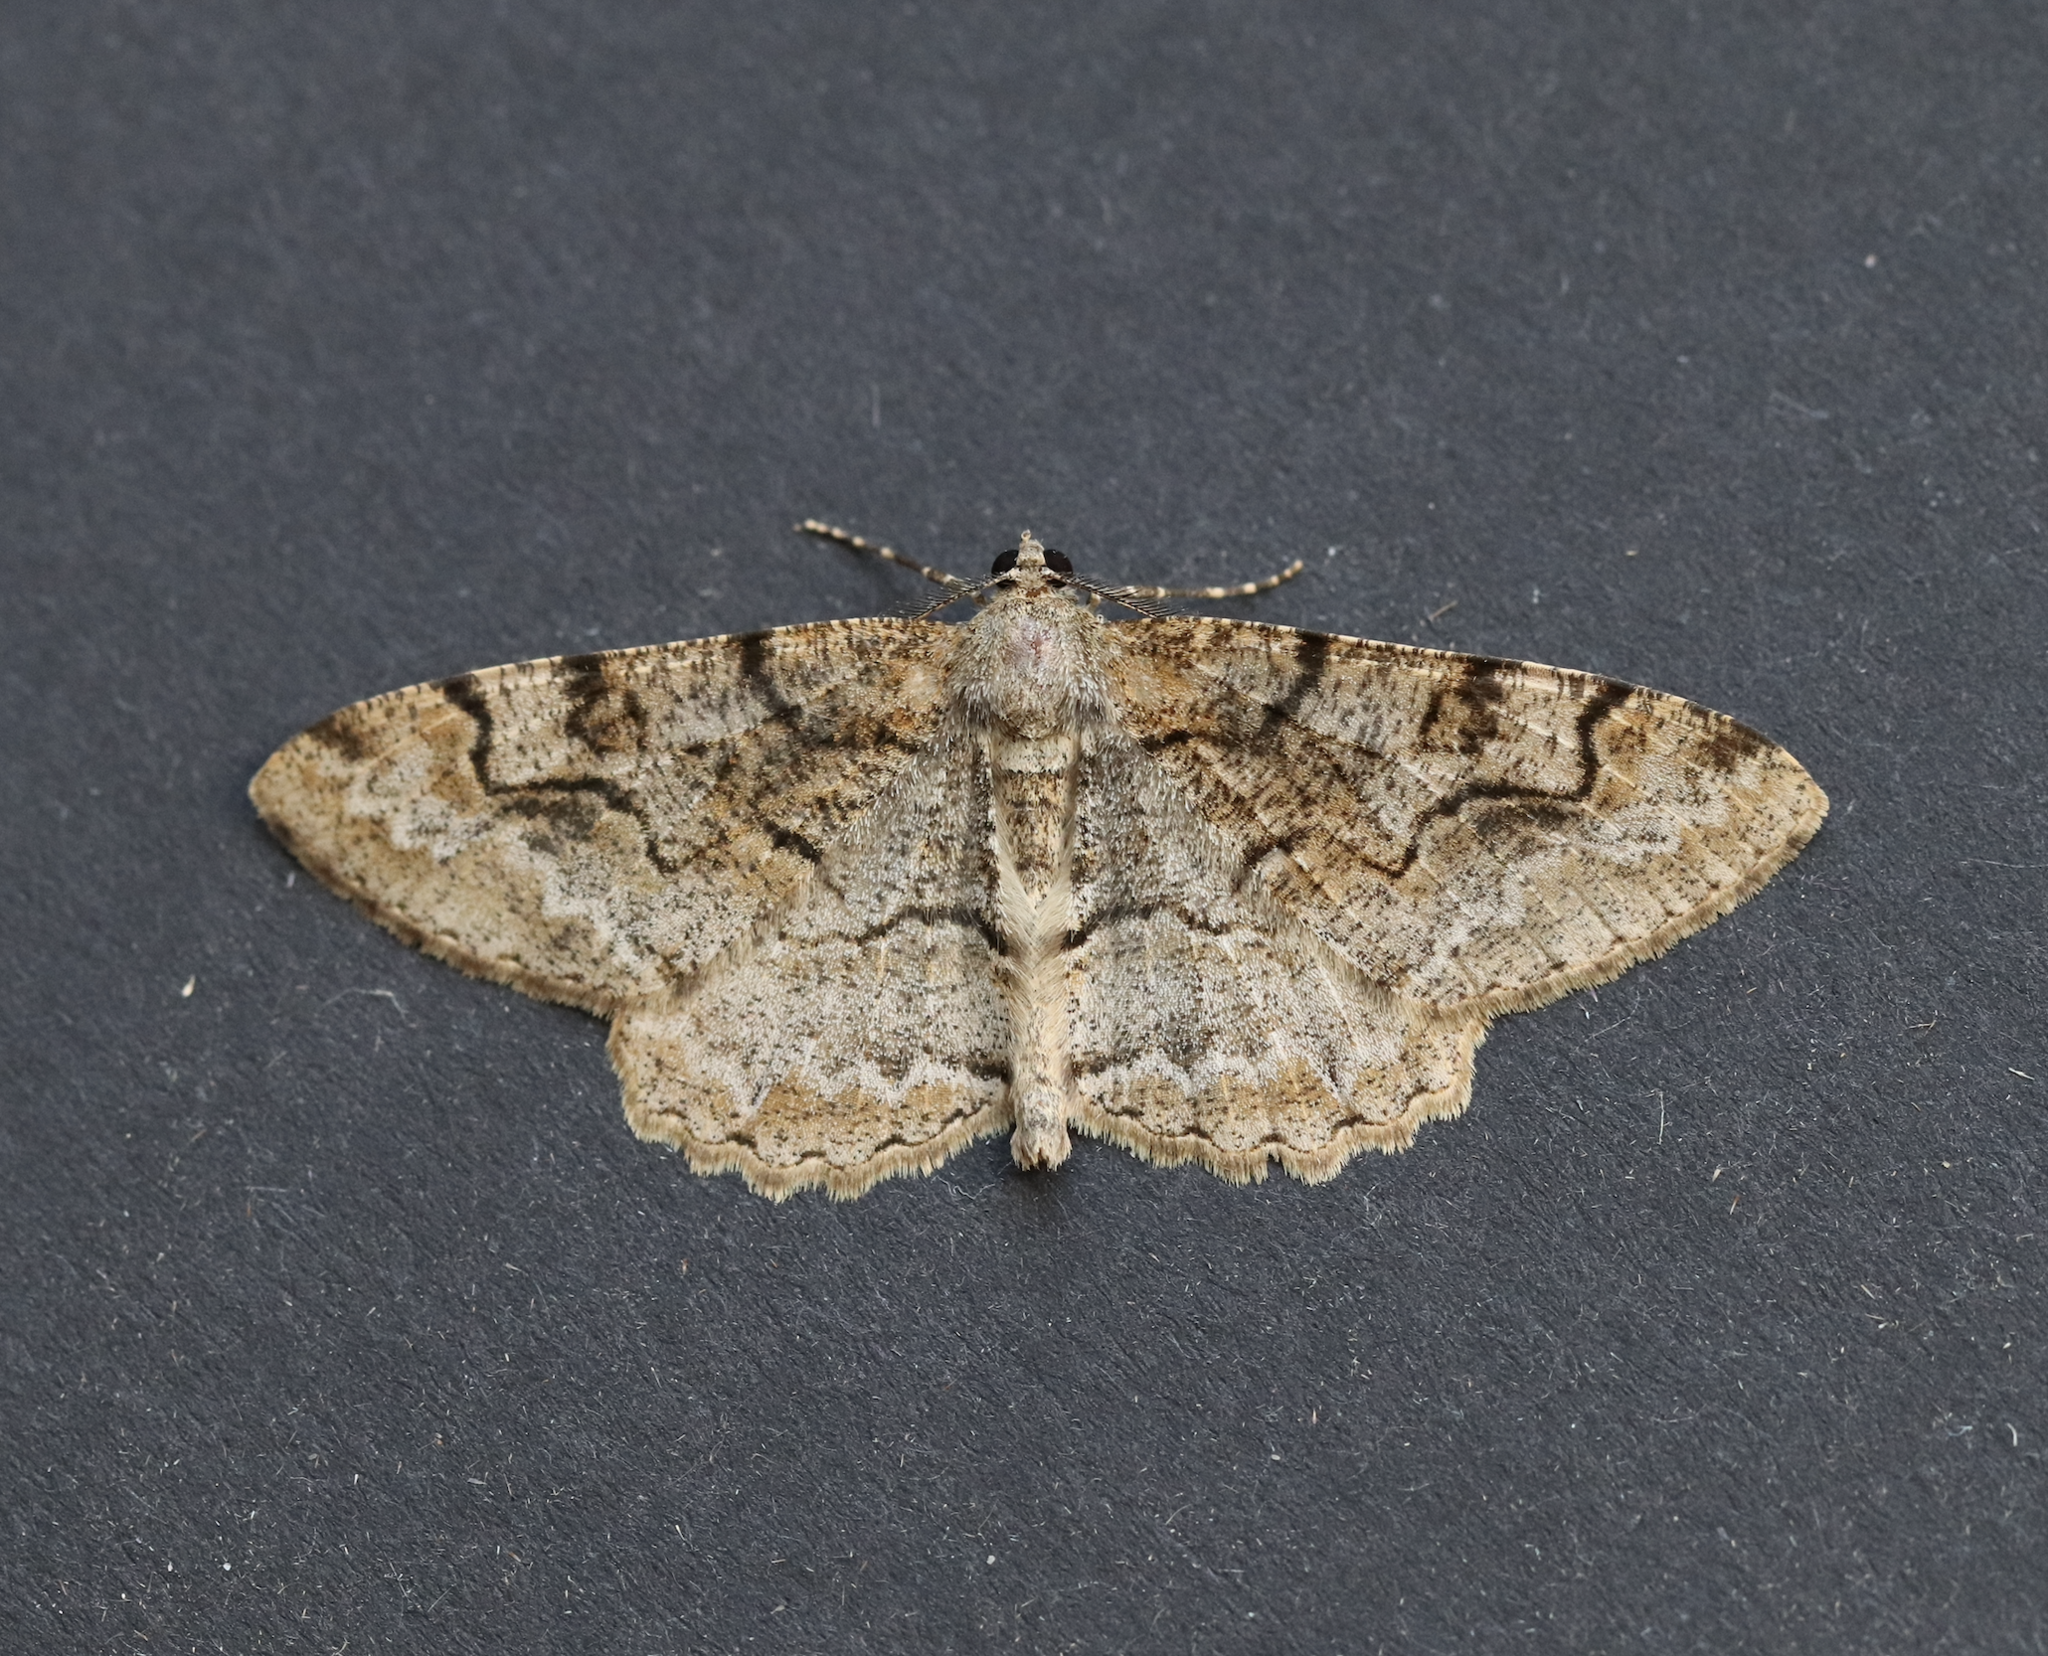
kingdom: Animalia
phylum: Arthropoda
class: Insecta
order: Lepidoptera
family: Geometridae
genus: Alcis
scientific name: Alcis repandata
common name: Mottled beauty
